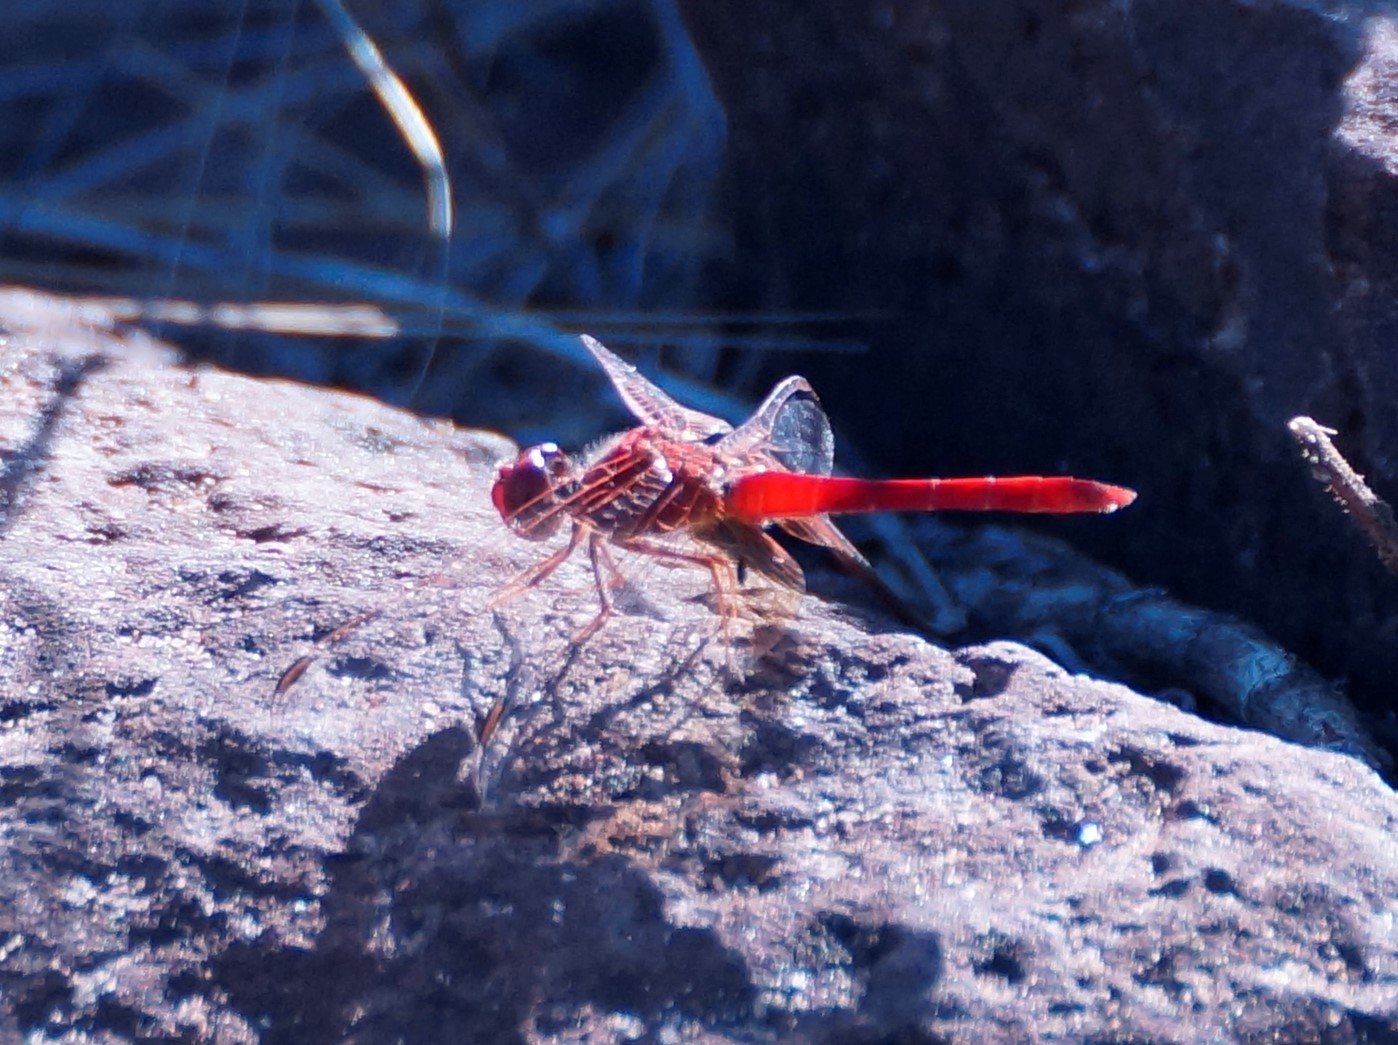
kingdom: Animalia
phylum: Arthropoda
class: Insecta
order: Odonata
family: Libellulidae
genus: Diplacodes
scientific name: Diplacodes haematodes
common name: Scarlet percher
